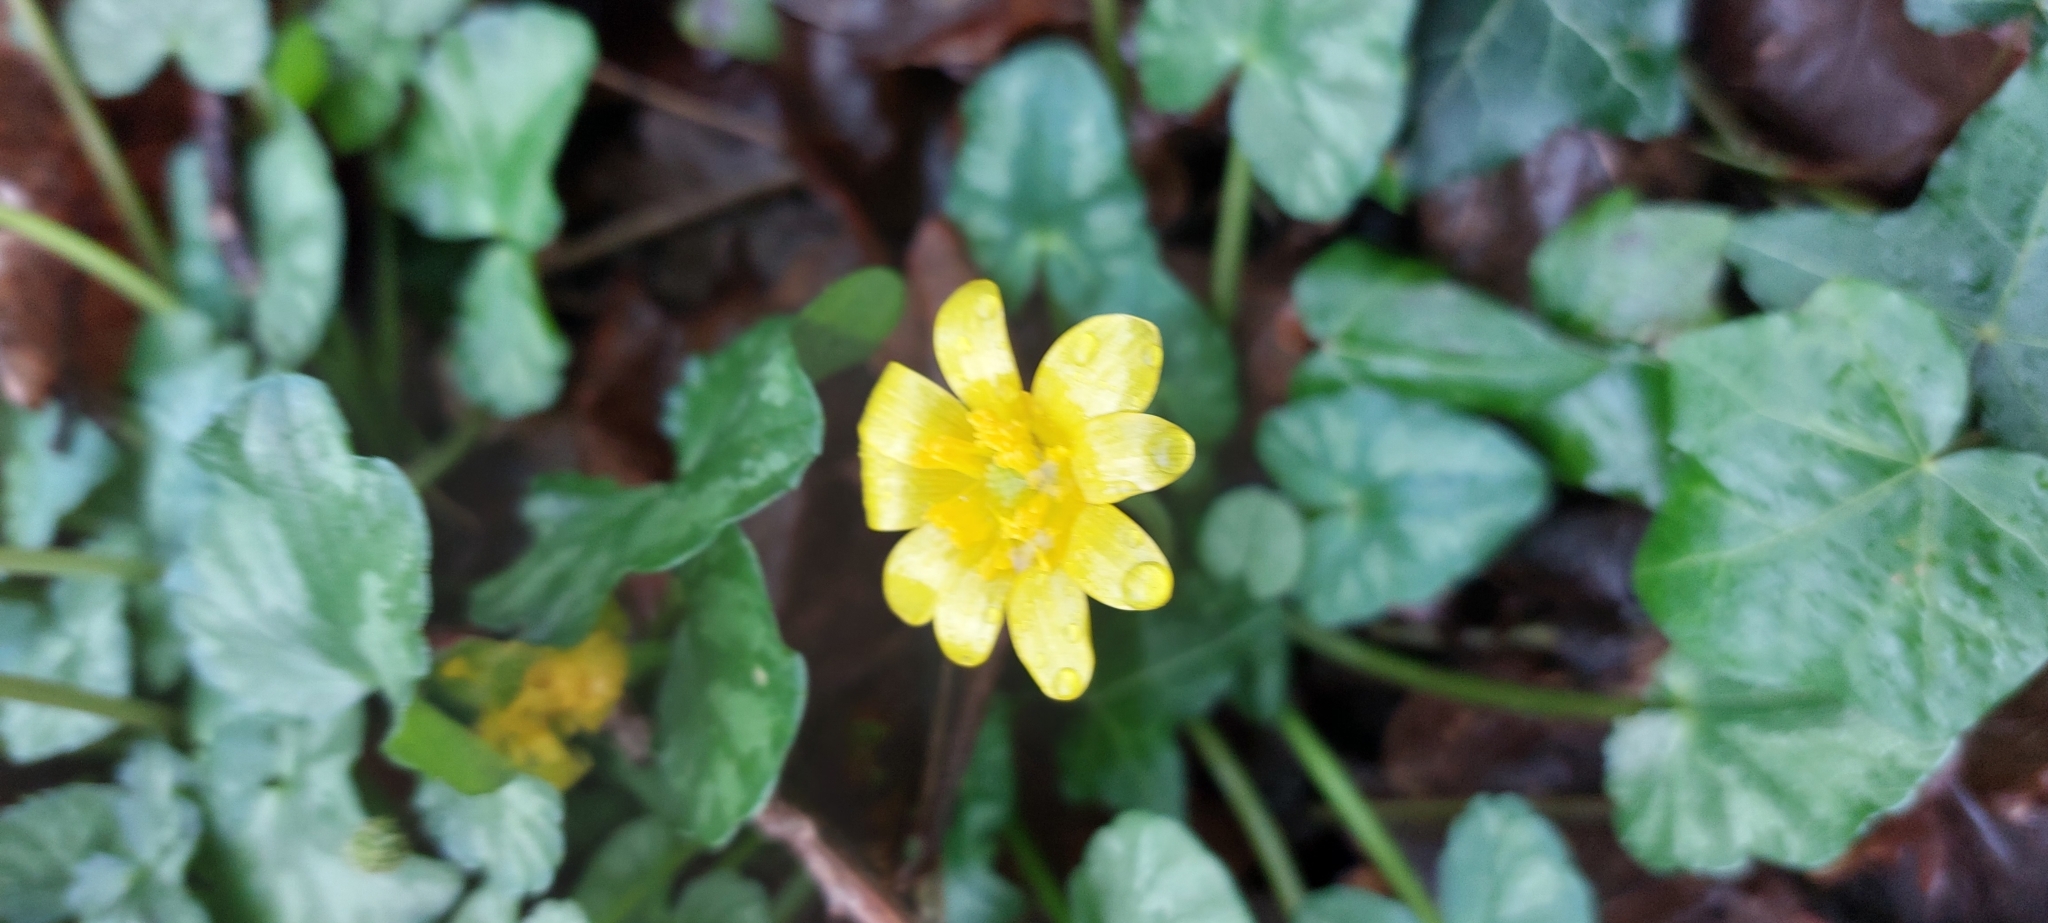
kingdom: Plantae
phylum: Tracheophyta
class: Magnoliopsida
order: Ranunculales
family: Ranunculaceae
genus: Ficaria
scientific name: Ficaria verna
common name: Lesser celandine
